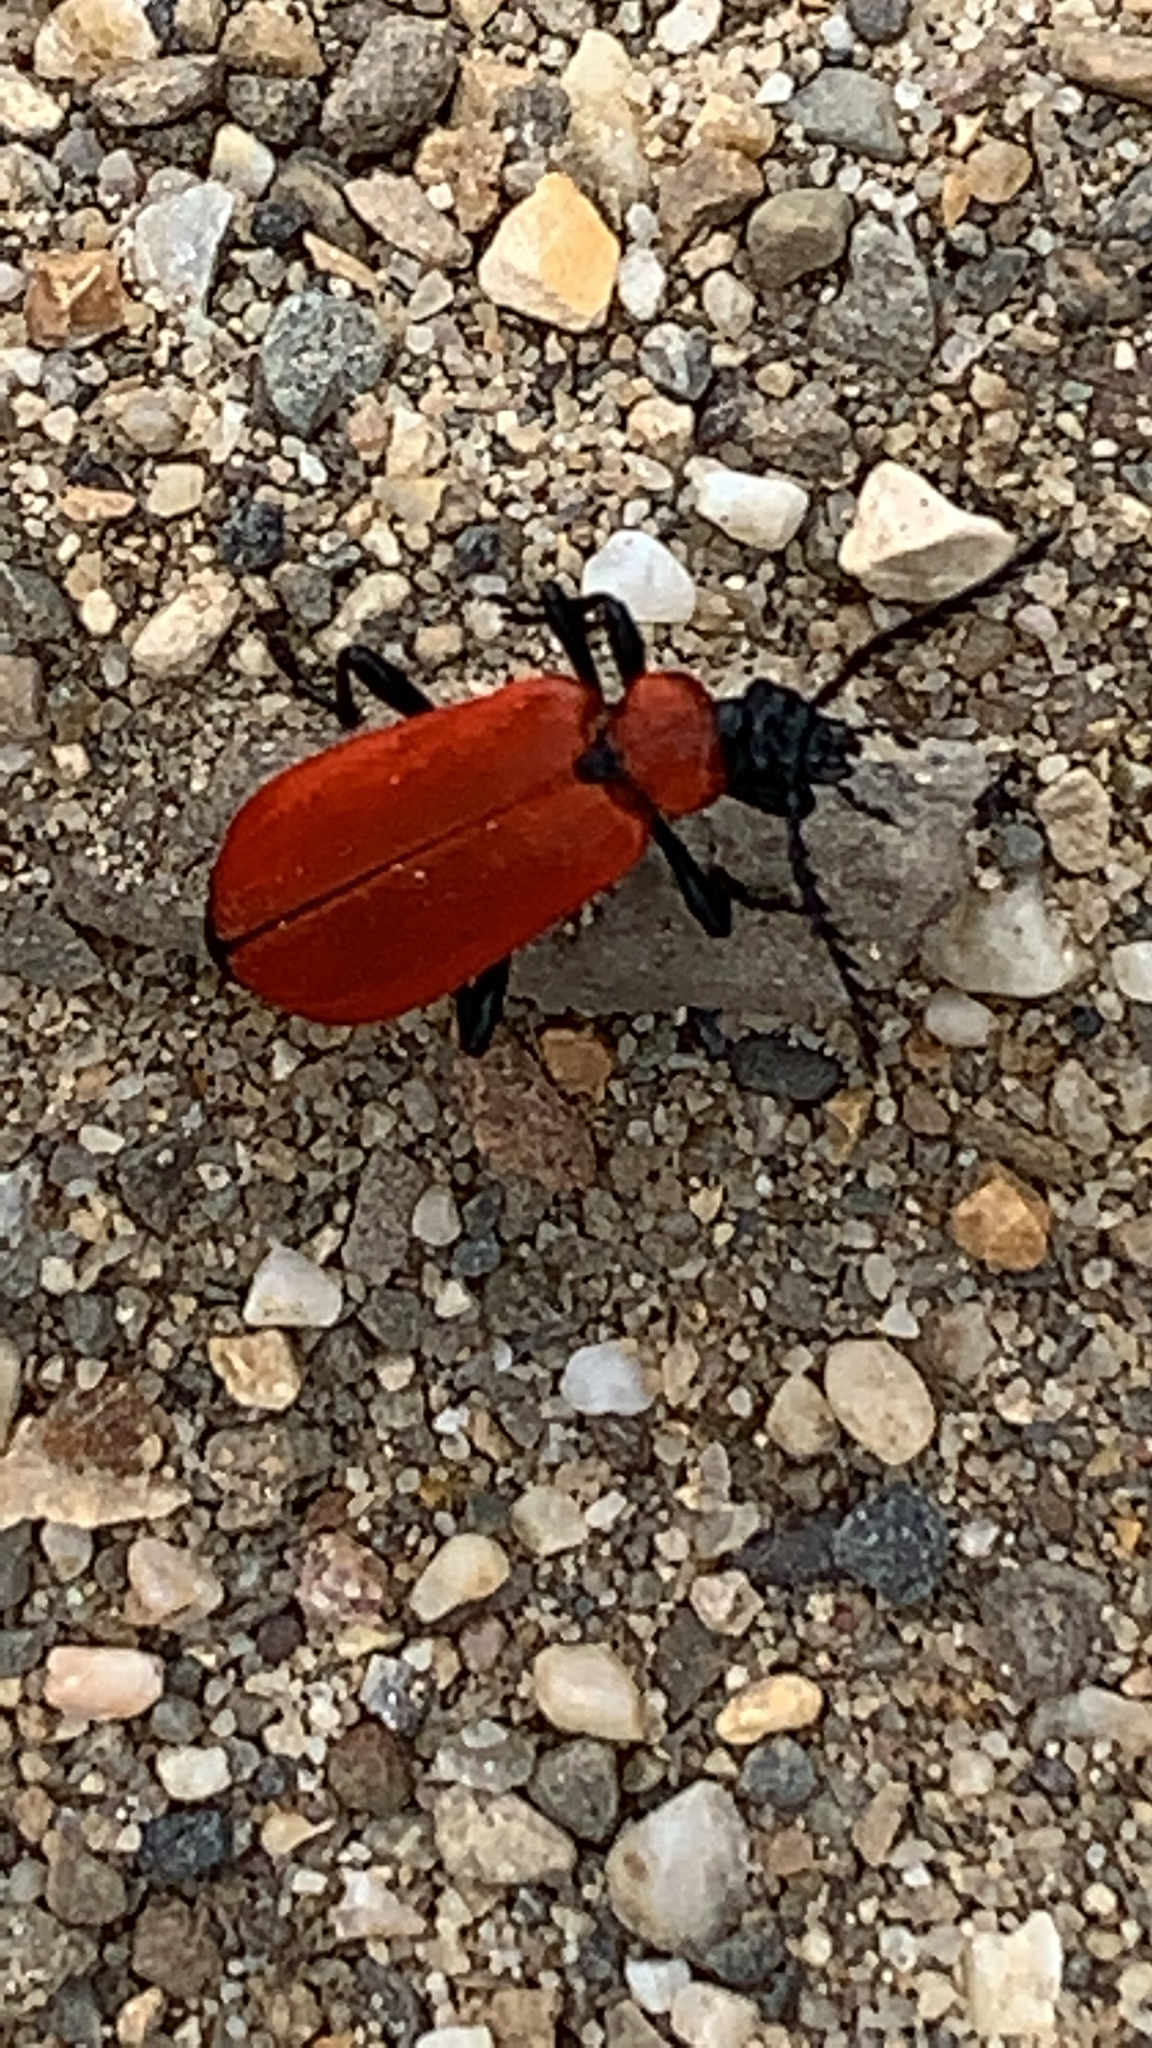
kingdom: Animalia
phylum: Arthropoda
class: Insecta
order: Coleoptera
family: Pyrochroidae
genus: Pyrochroa
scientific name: Pyrochroa coccinea
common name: Black-headed cardinal beetle
